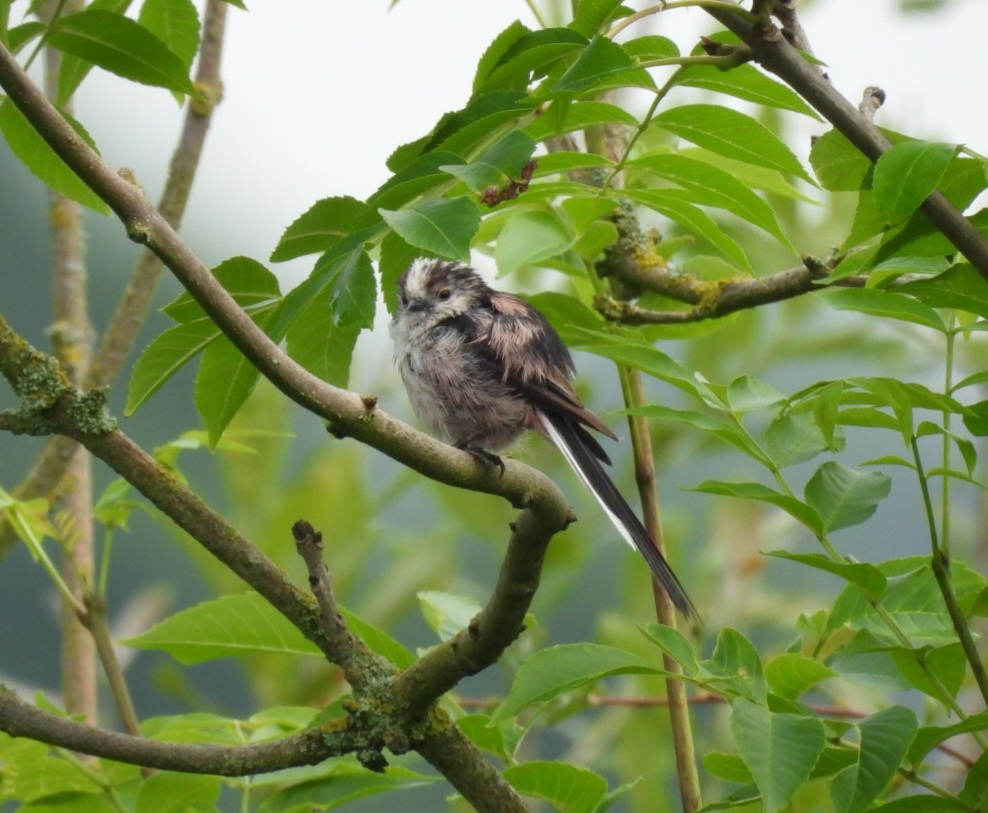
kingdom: Animalia
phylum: Chordata
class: Aves
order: Passeriformes
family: Aegithalidae
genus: Aegithalos
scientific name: Aegithalos caudatus
